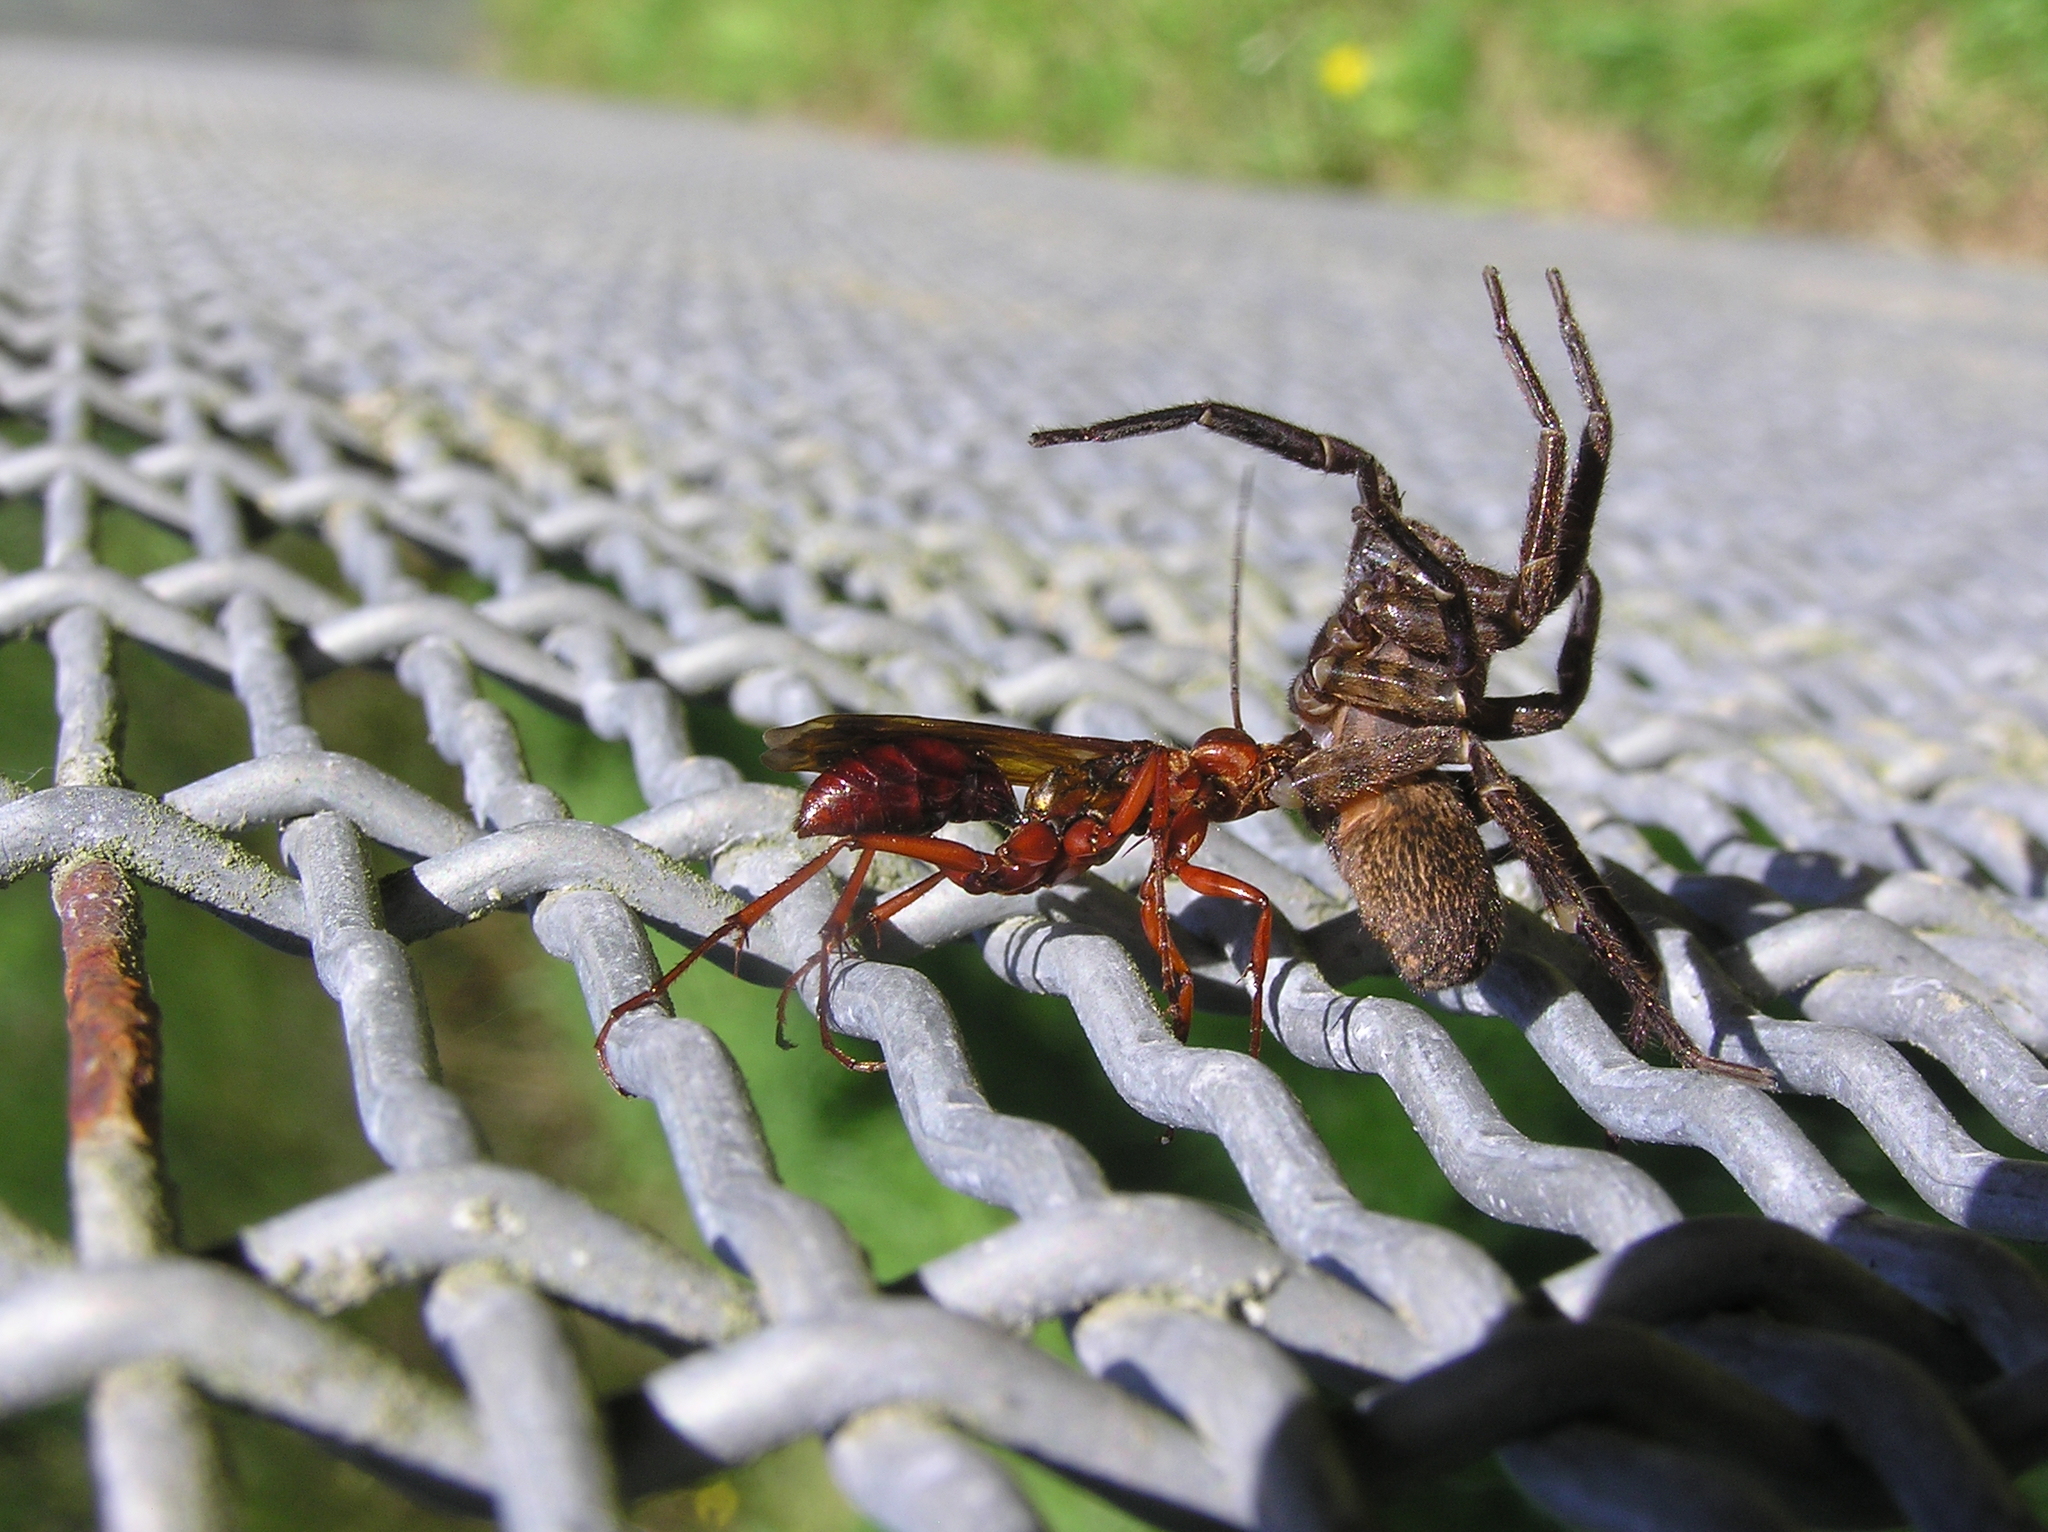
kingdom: Animalia
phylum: Arthropoda
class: Insecta
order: Hymenoptera
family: Pompilidae
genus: Sphictostethus
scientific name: Sphictostethus nitidus
